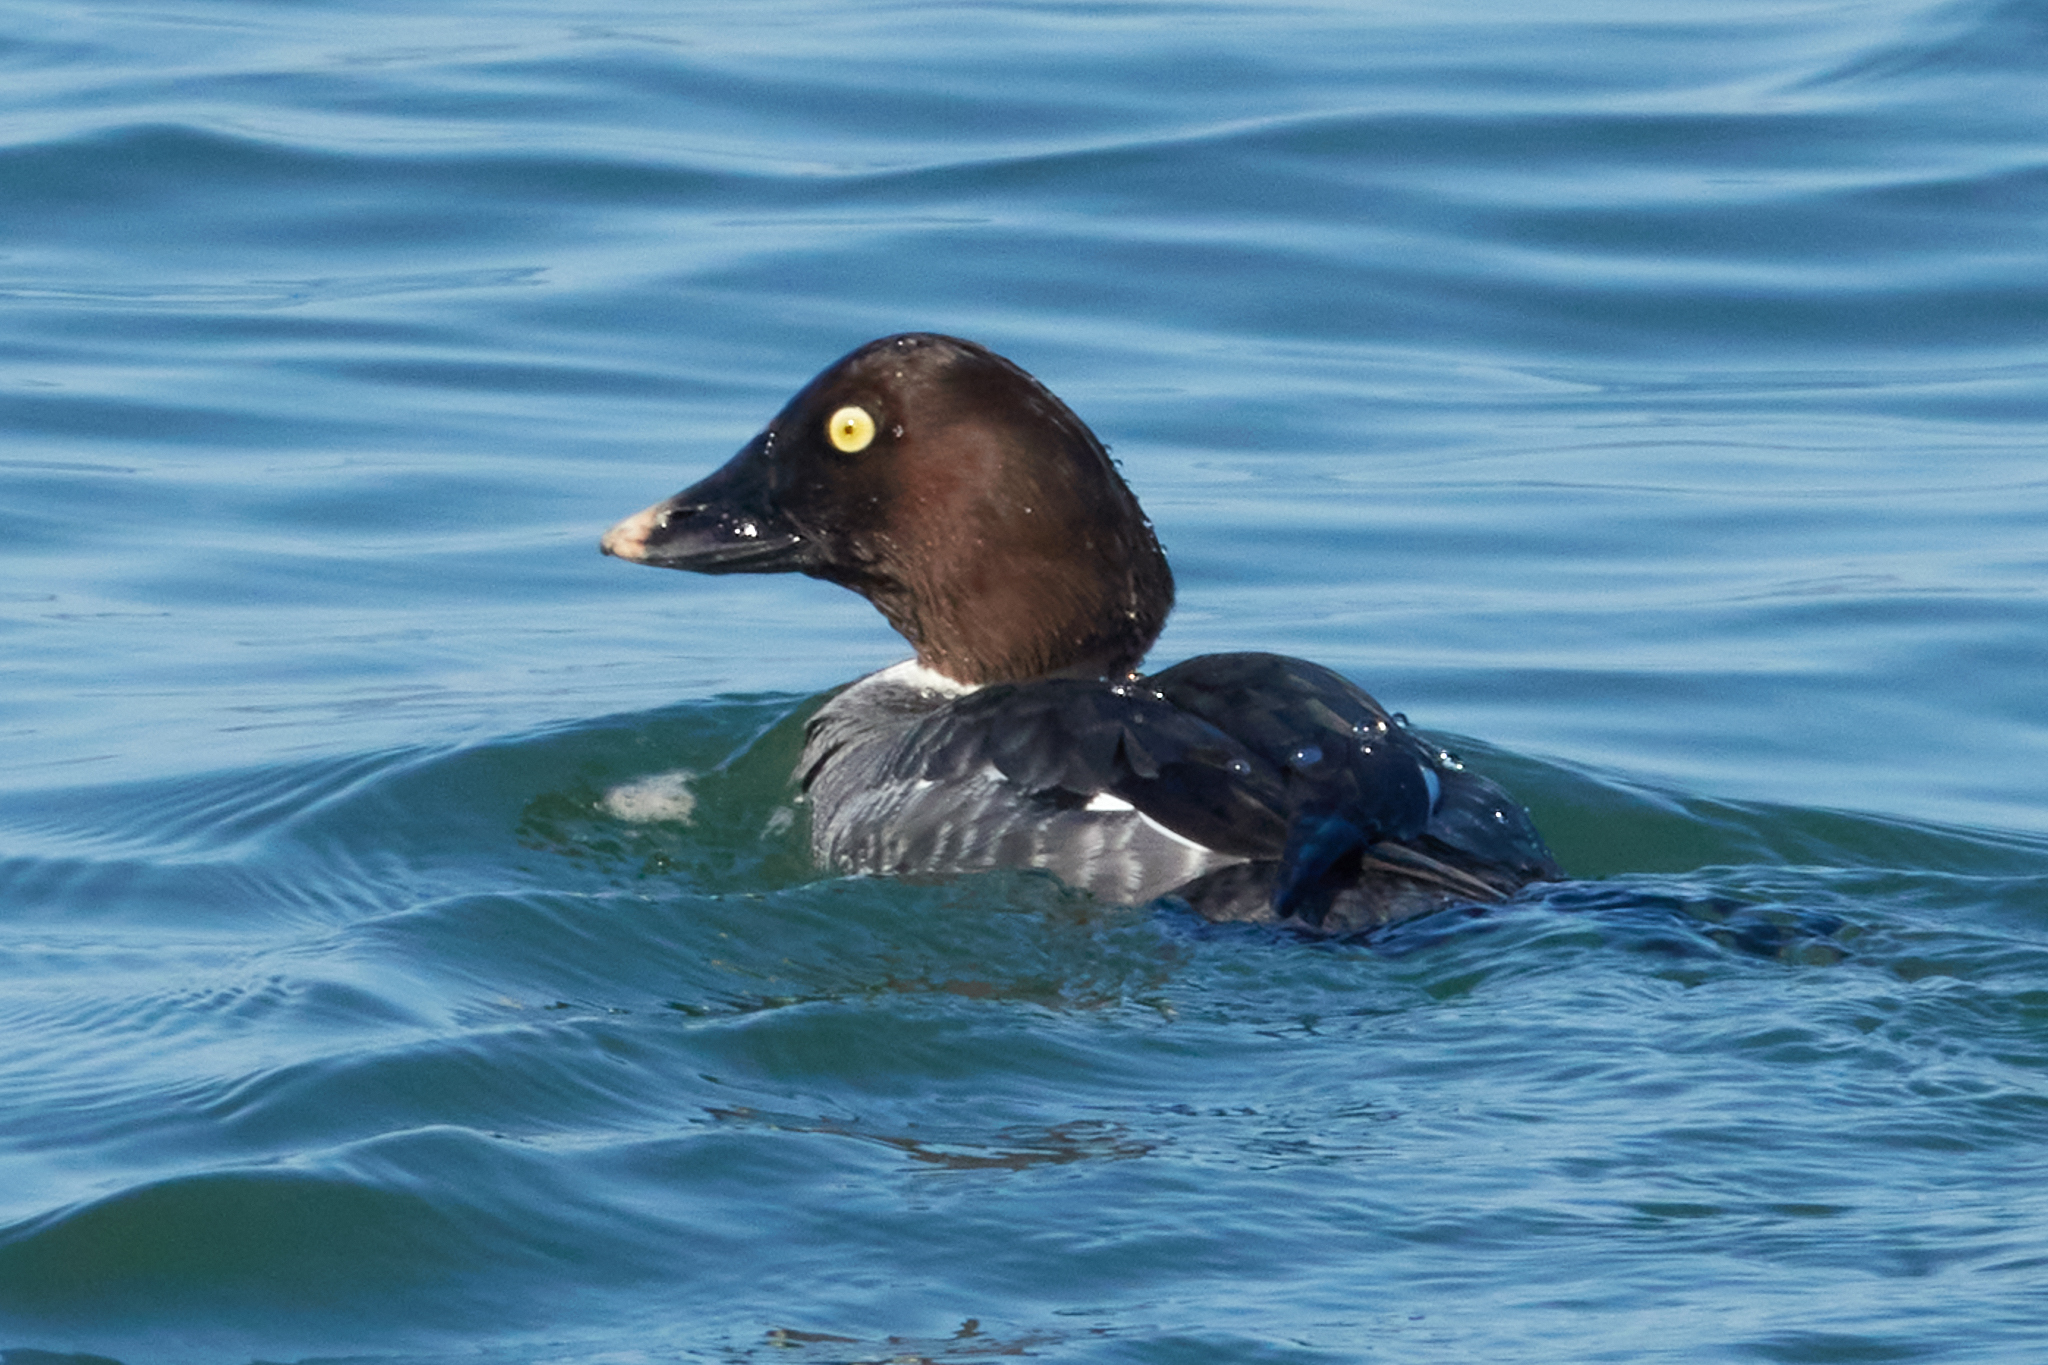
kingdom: Animalia
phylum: Chordata
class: Aves
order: Anseriformes
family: Anatidae
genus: Bucephala
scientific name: Bucephala clangula
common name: Common goldeneye
